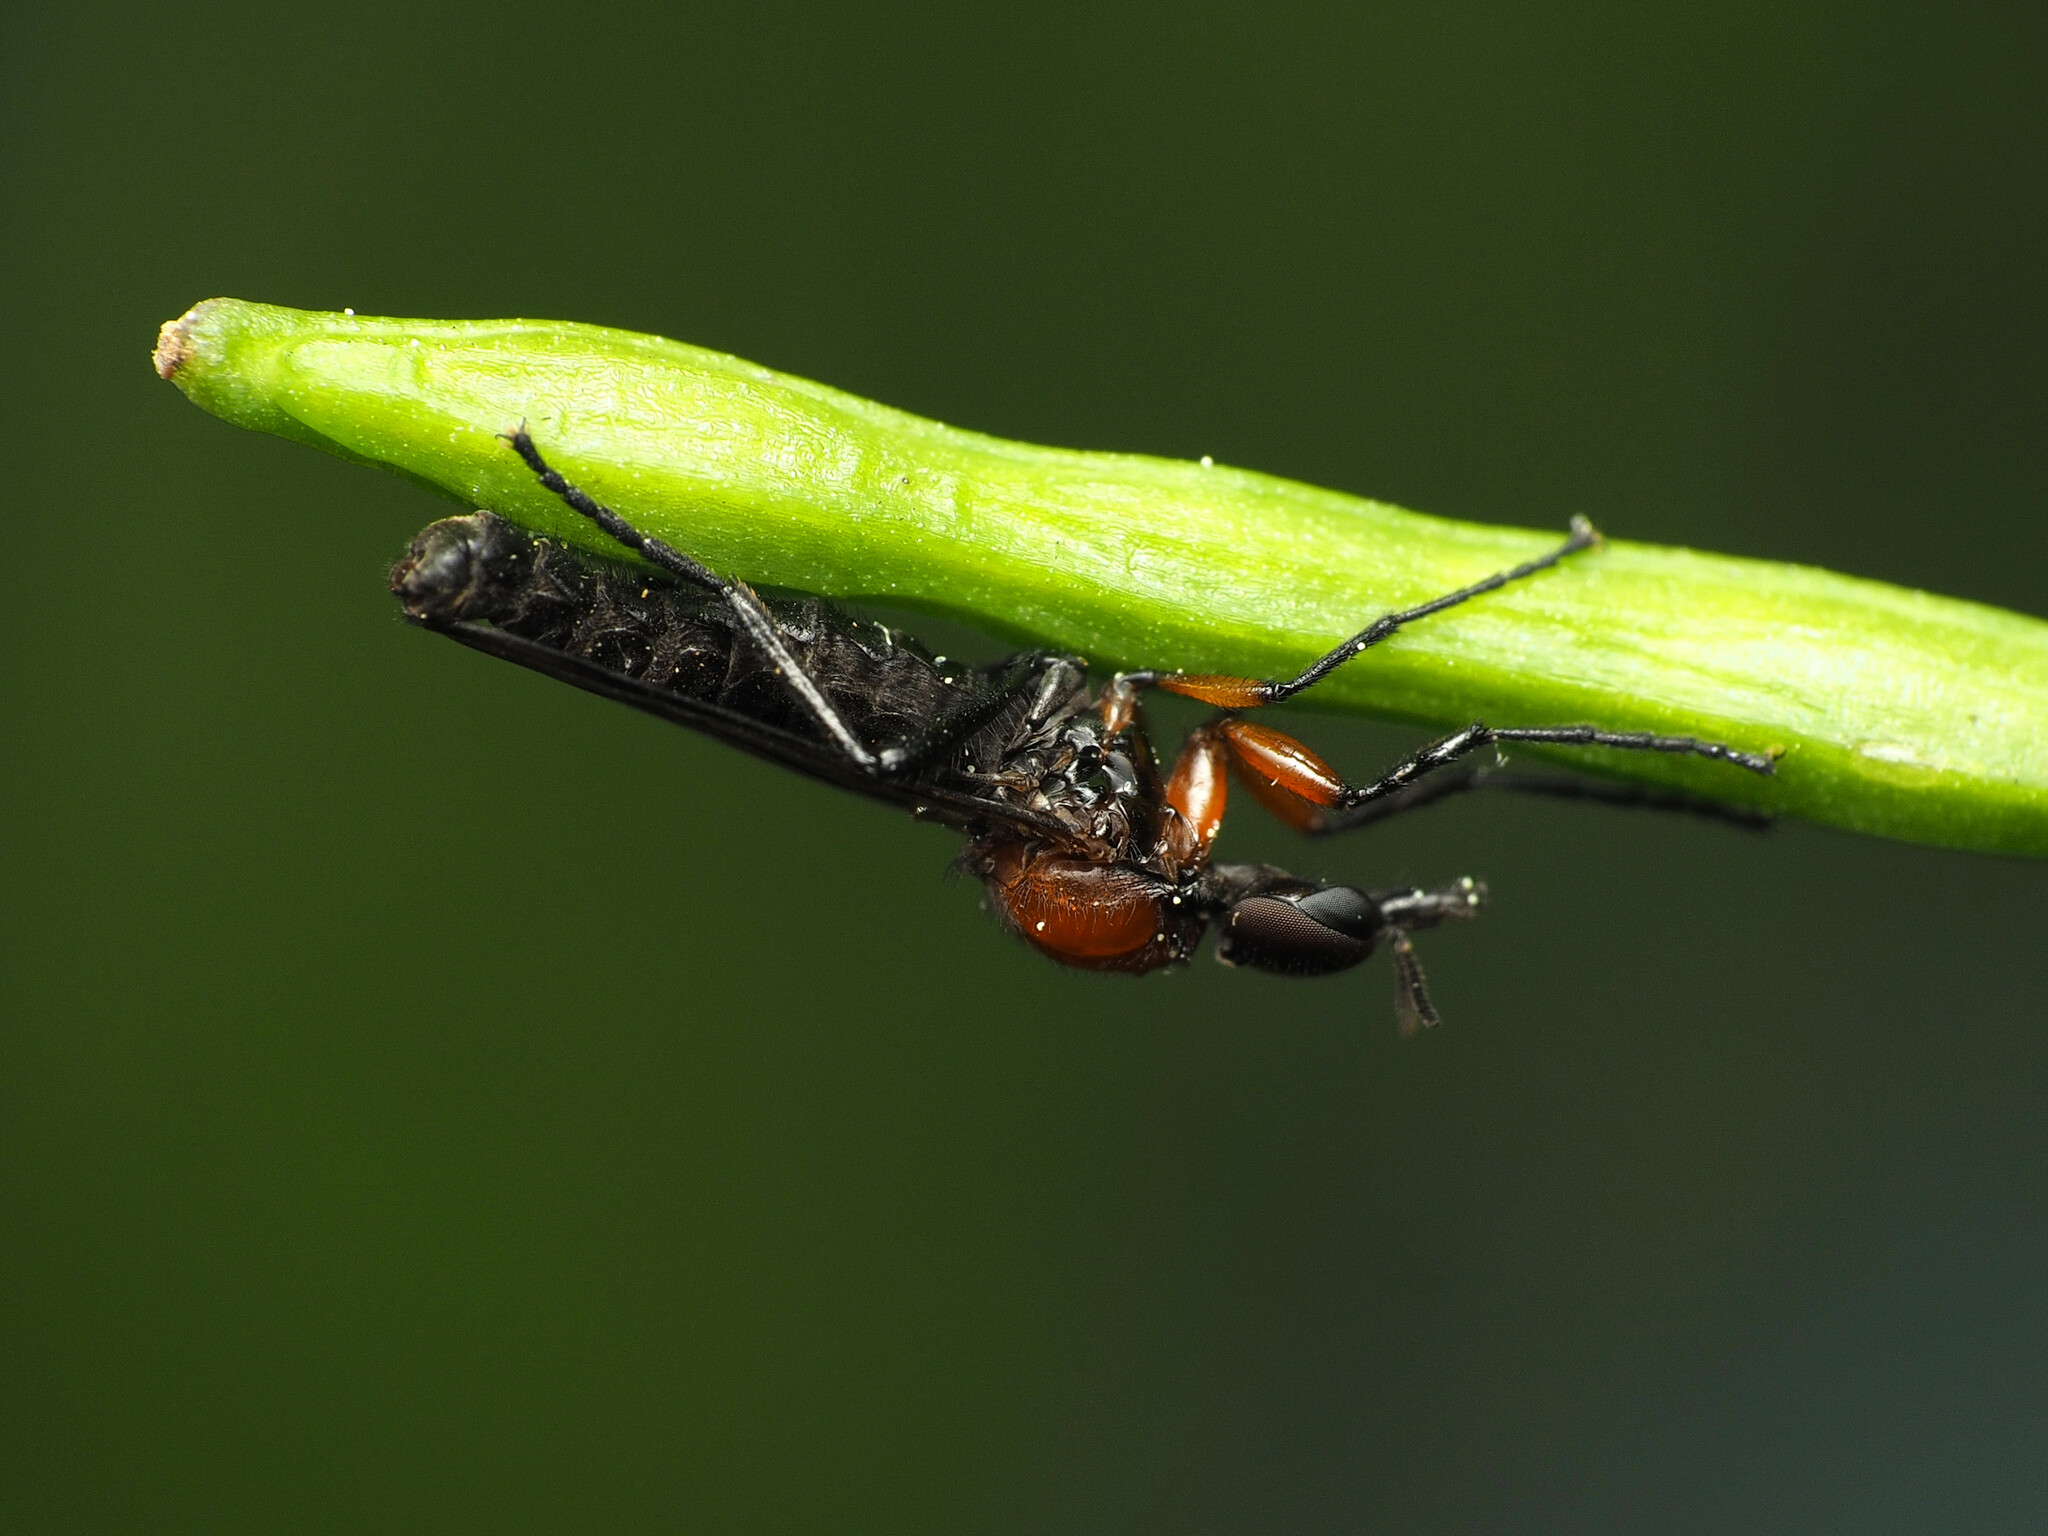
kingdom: Animalia
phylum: Arthropoda
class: Insecta
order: Diptera
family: Bibionidae
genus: Dilophus
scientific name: Dilophus spinipes
